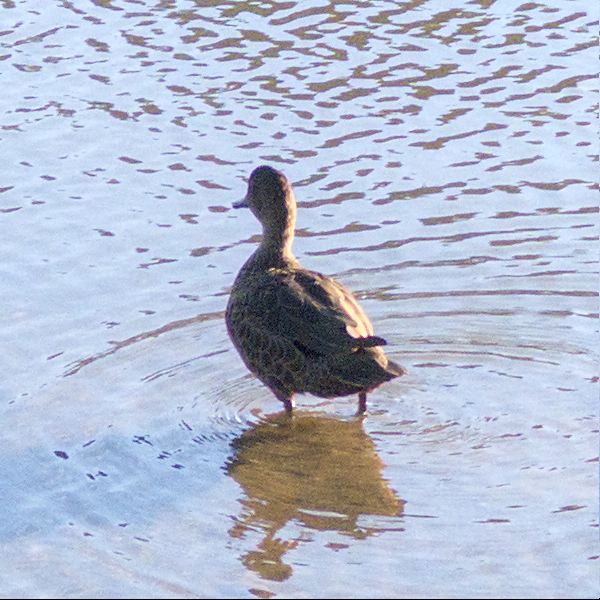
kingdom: Animalia
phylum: Chordata
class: Aves
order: Anseriformes
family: Anatidae
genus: Anas
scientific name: Anas castanea
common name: Chestnut teal
